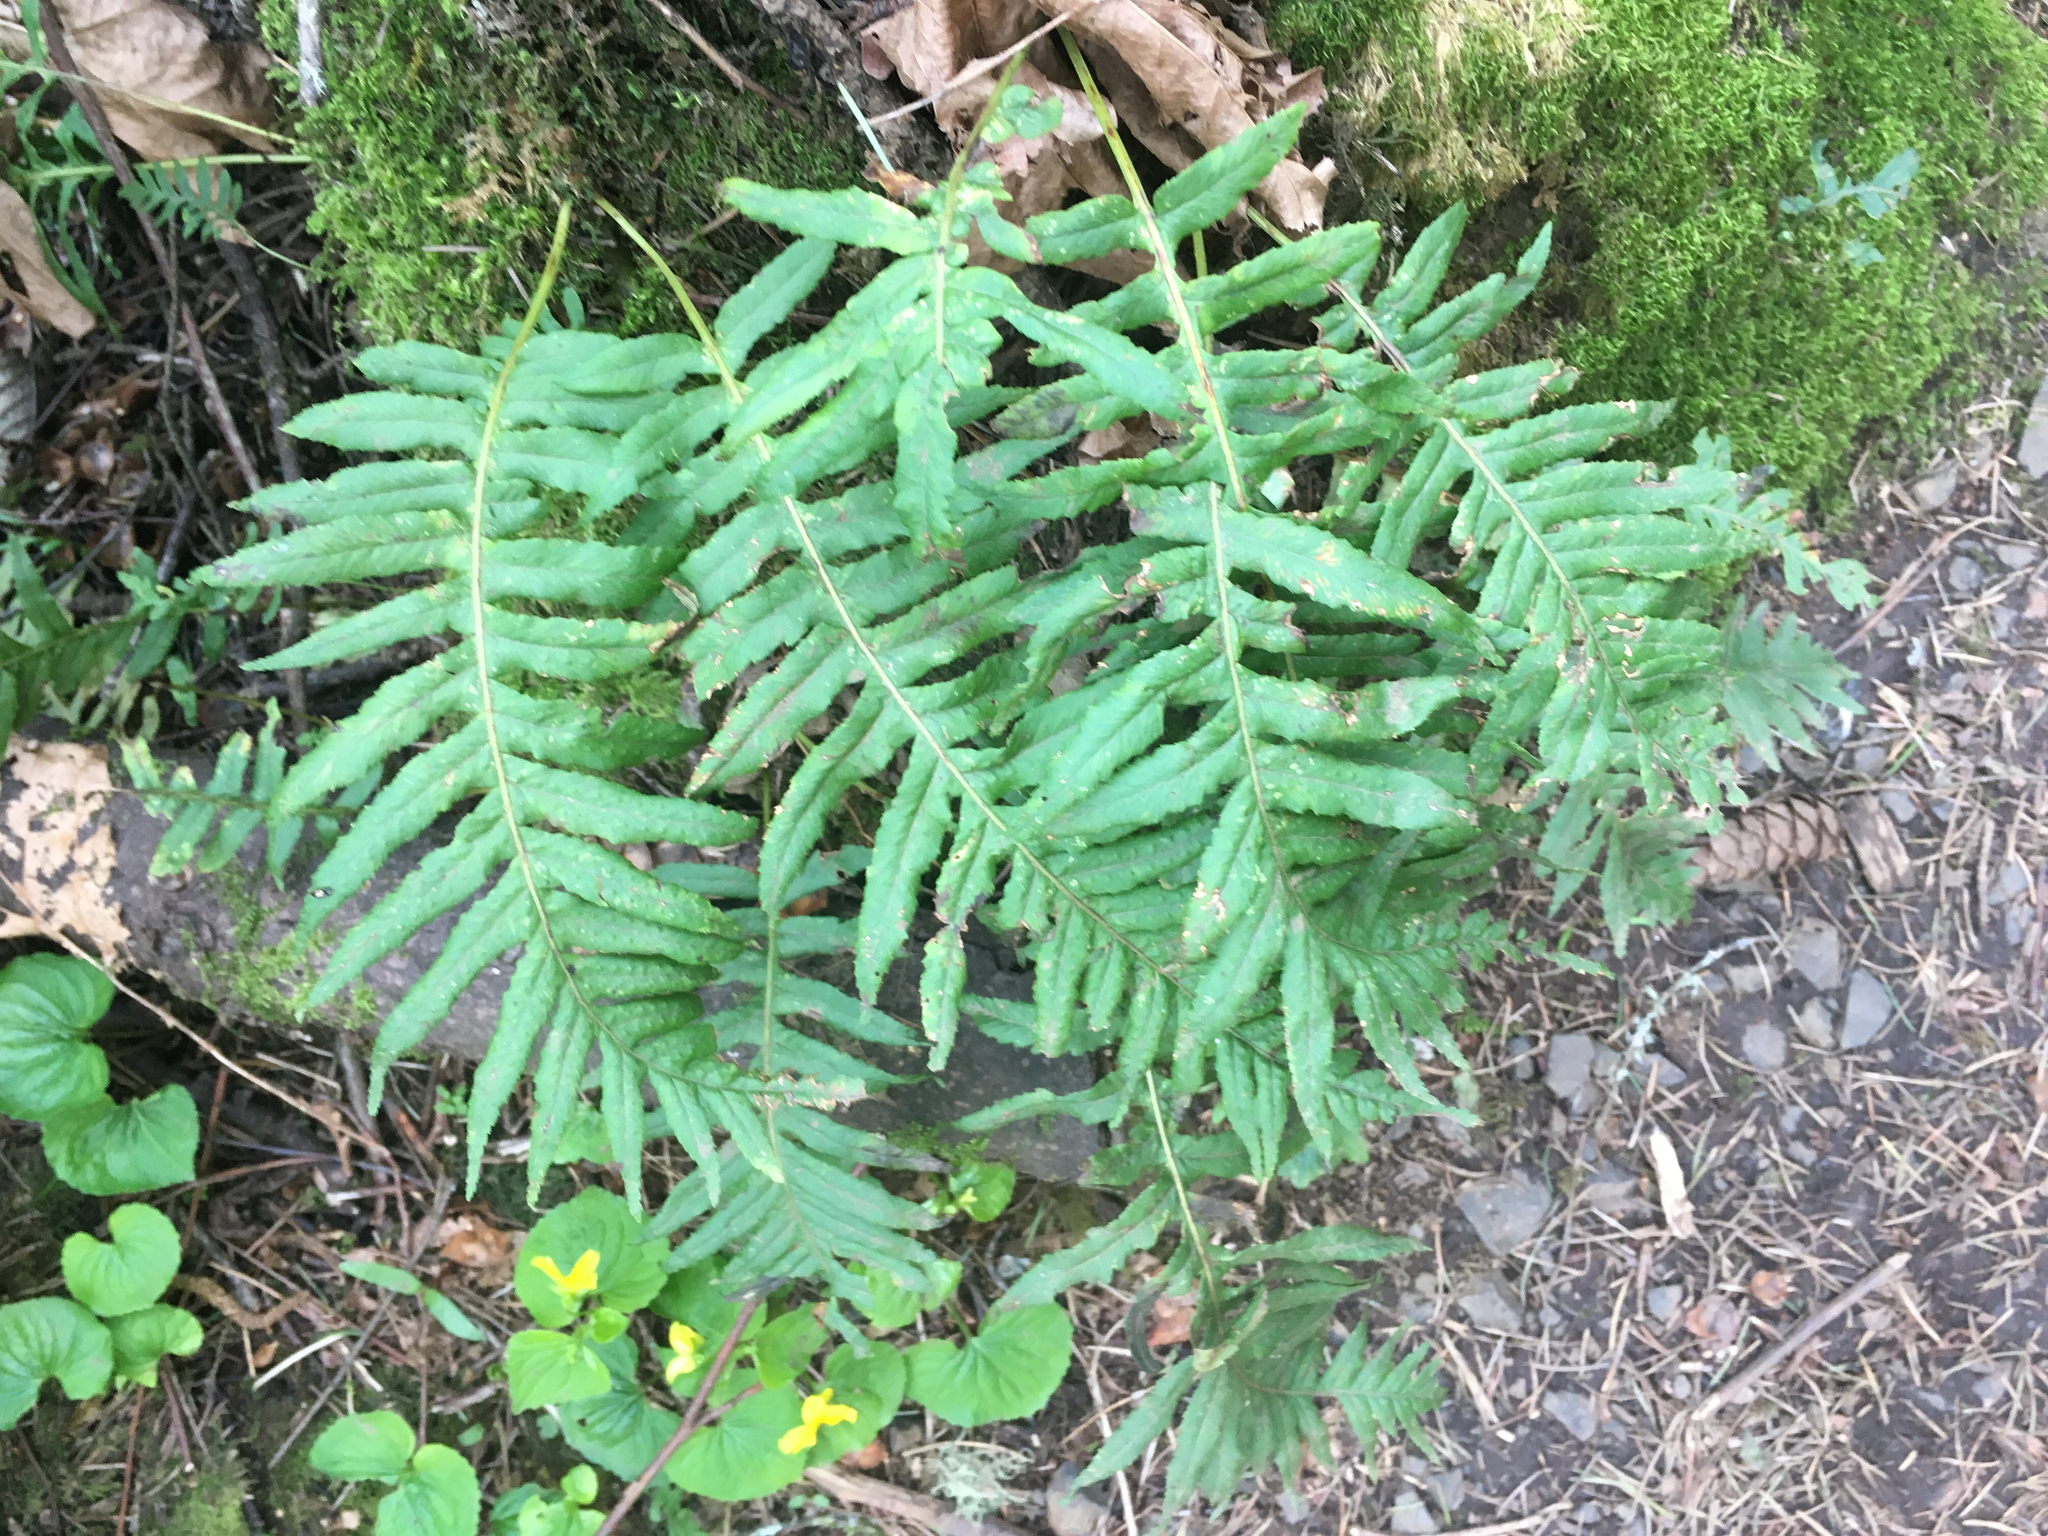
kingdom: Plantae
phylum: Tracheophyta
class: Polypodiopsida
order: Polypodiales
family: Polypodiaceae
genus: Polypodium
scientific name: Polypodium glycyrrhiza
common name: Licorice fern
